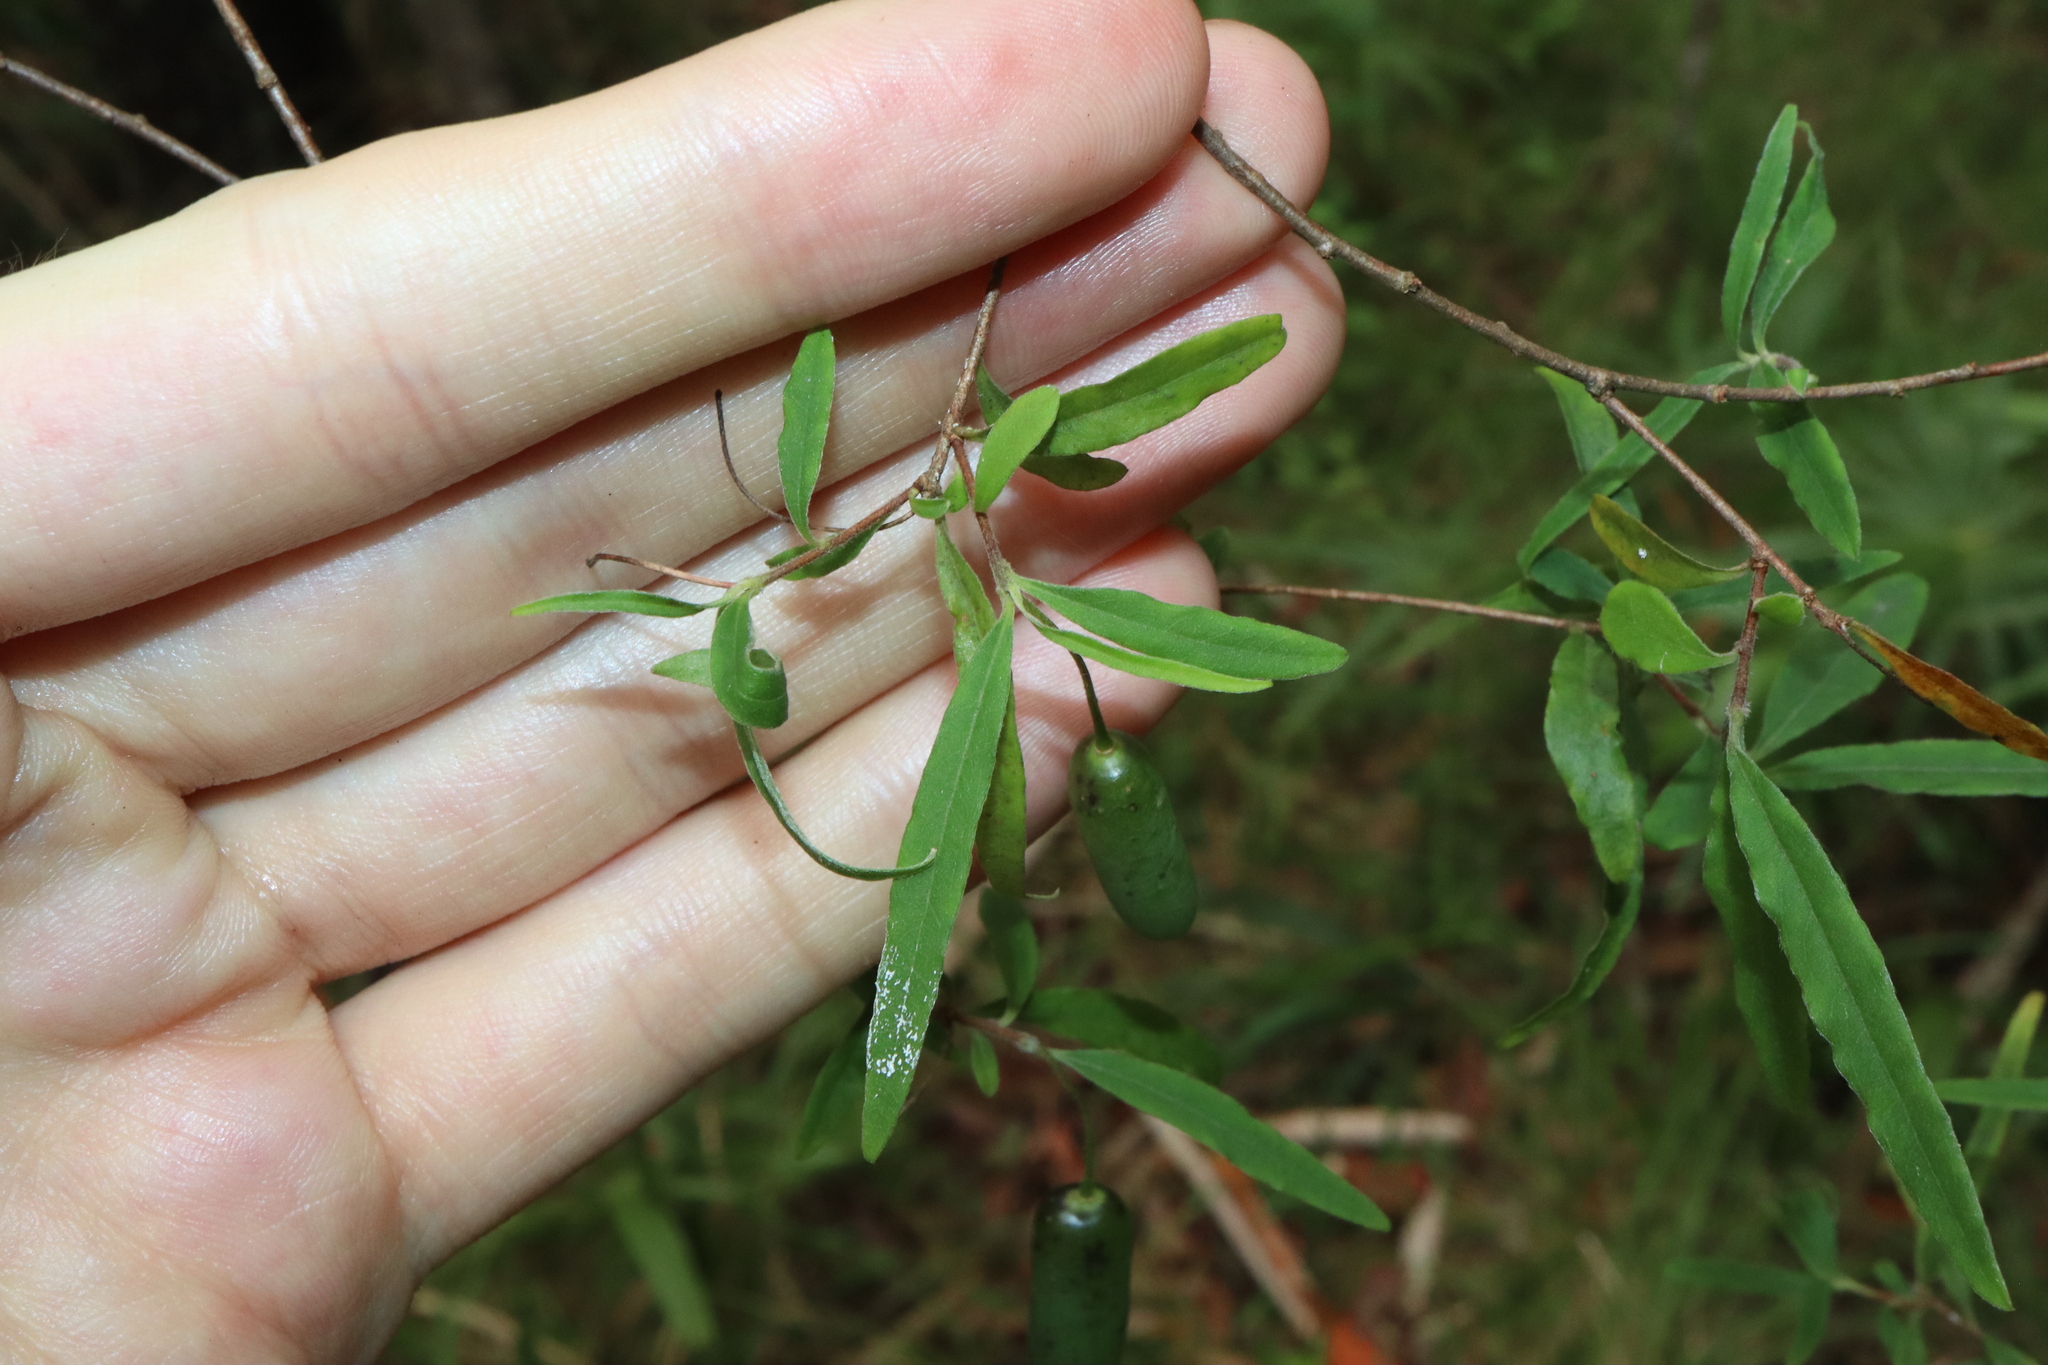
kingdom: Plantae
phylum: Tracheophyta
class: Magnoliopsida
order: Apiales
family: Pittosporaceae
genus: Billardiera
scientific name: Billardiera mutabilis
